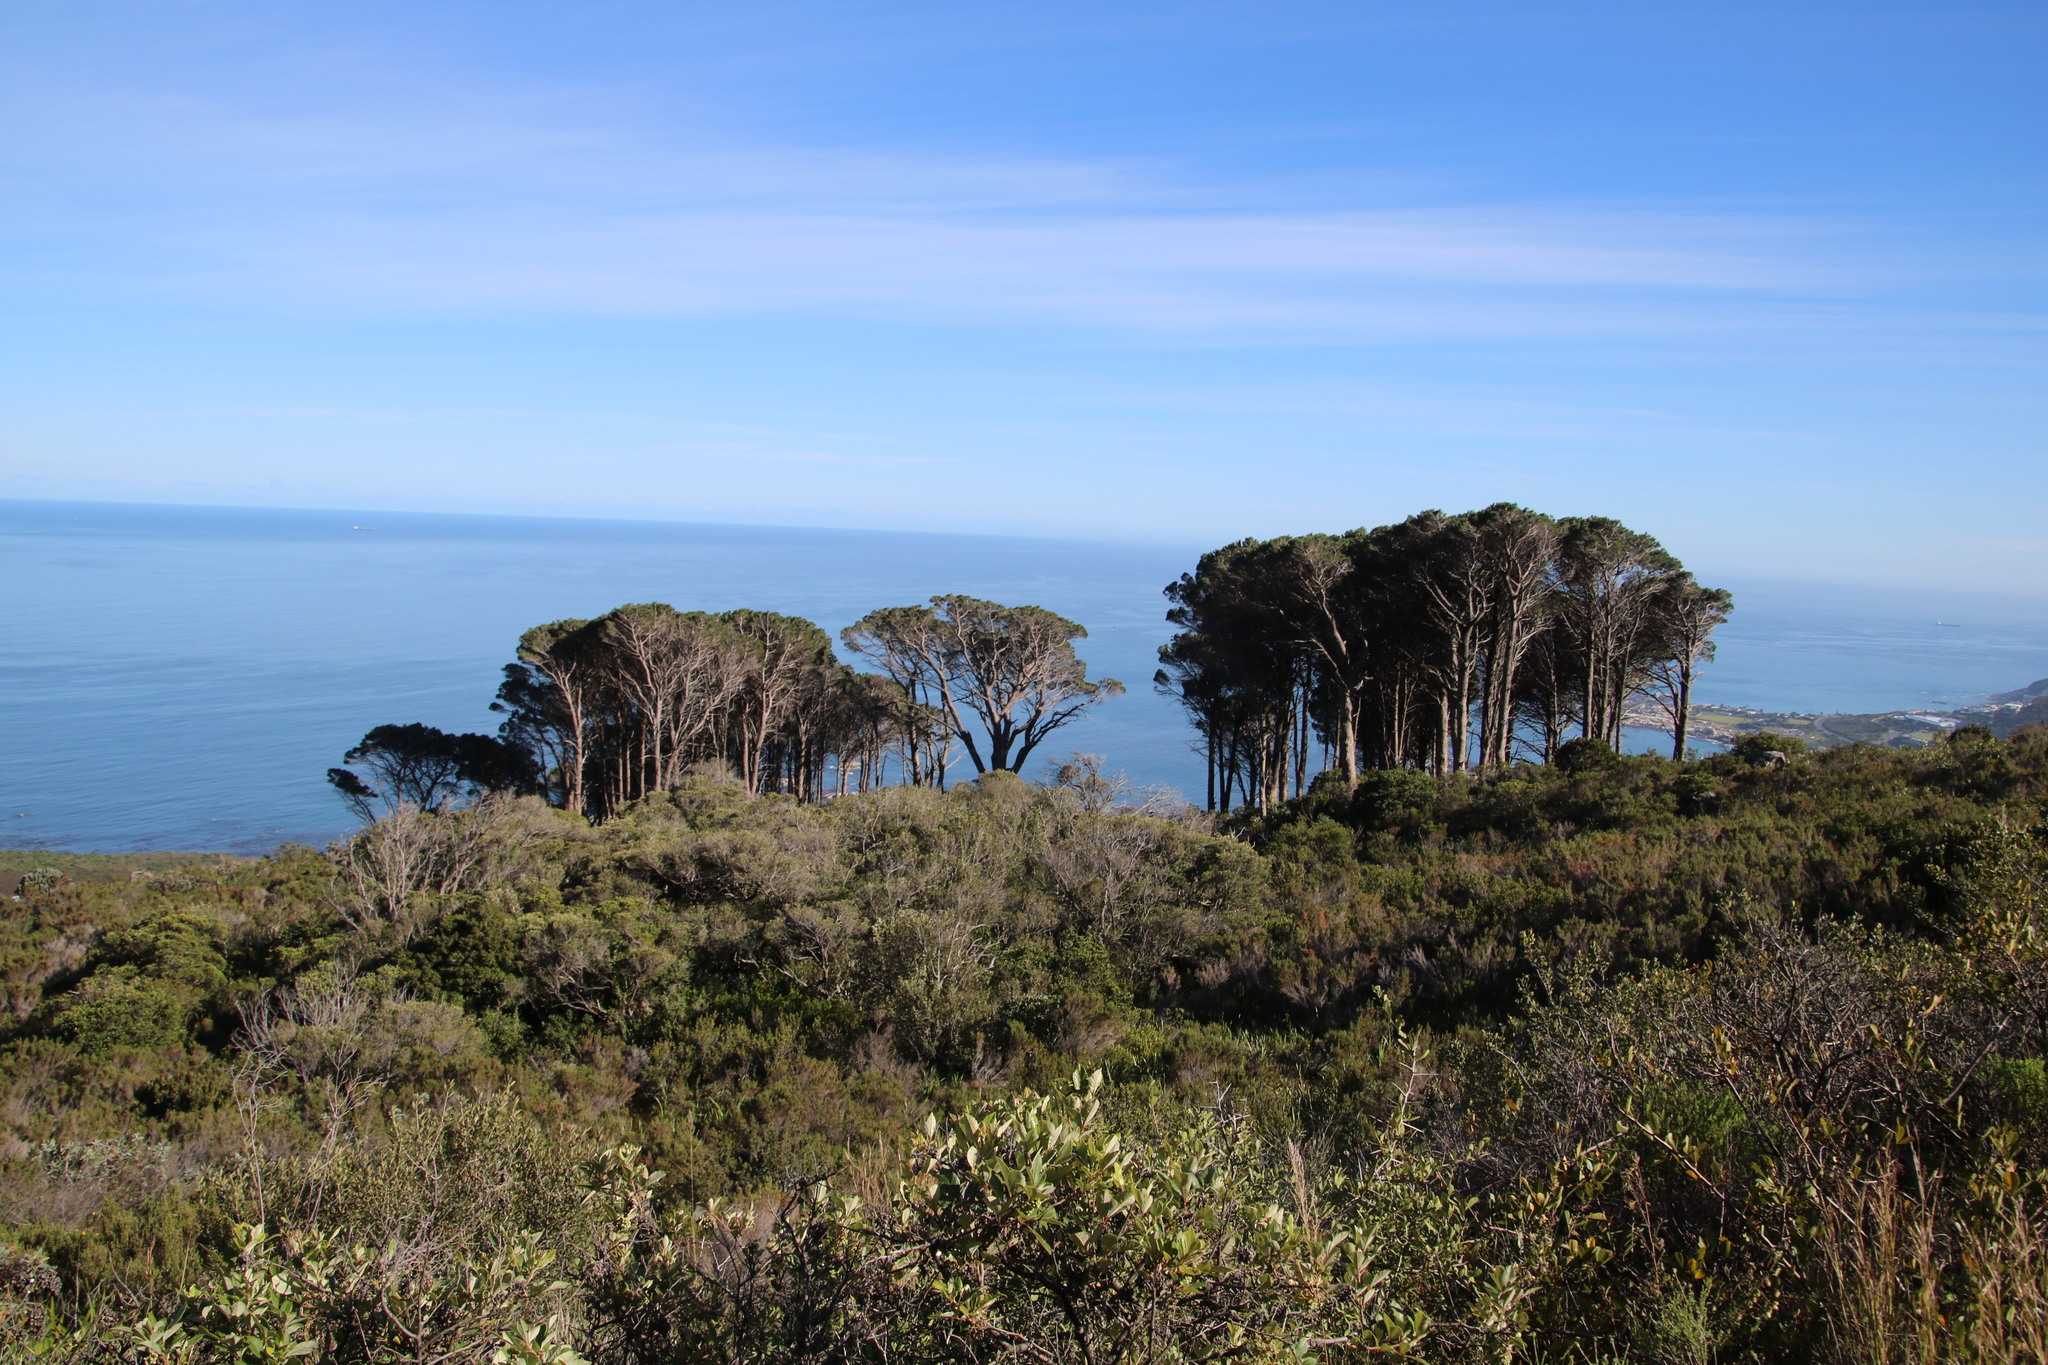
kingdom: Plantae
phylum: Tracheophyta
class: Pinopsida
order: Pinales
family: Pinaceae
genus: Pinus
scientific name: Pinus pinea
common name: Italian stone pine
